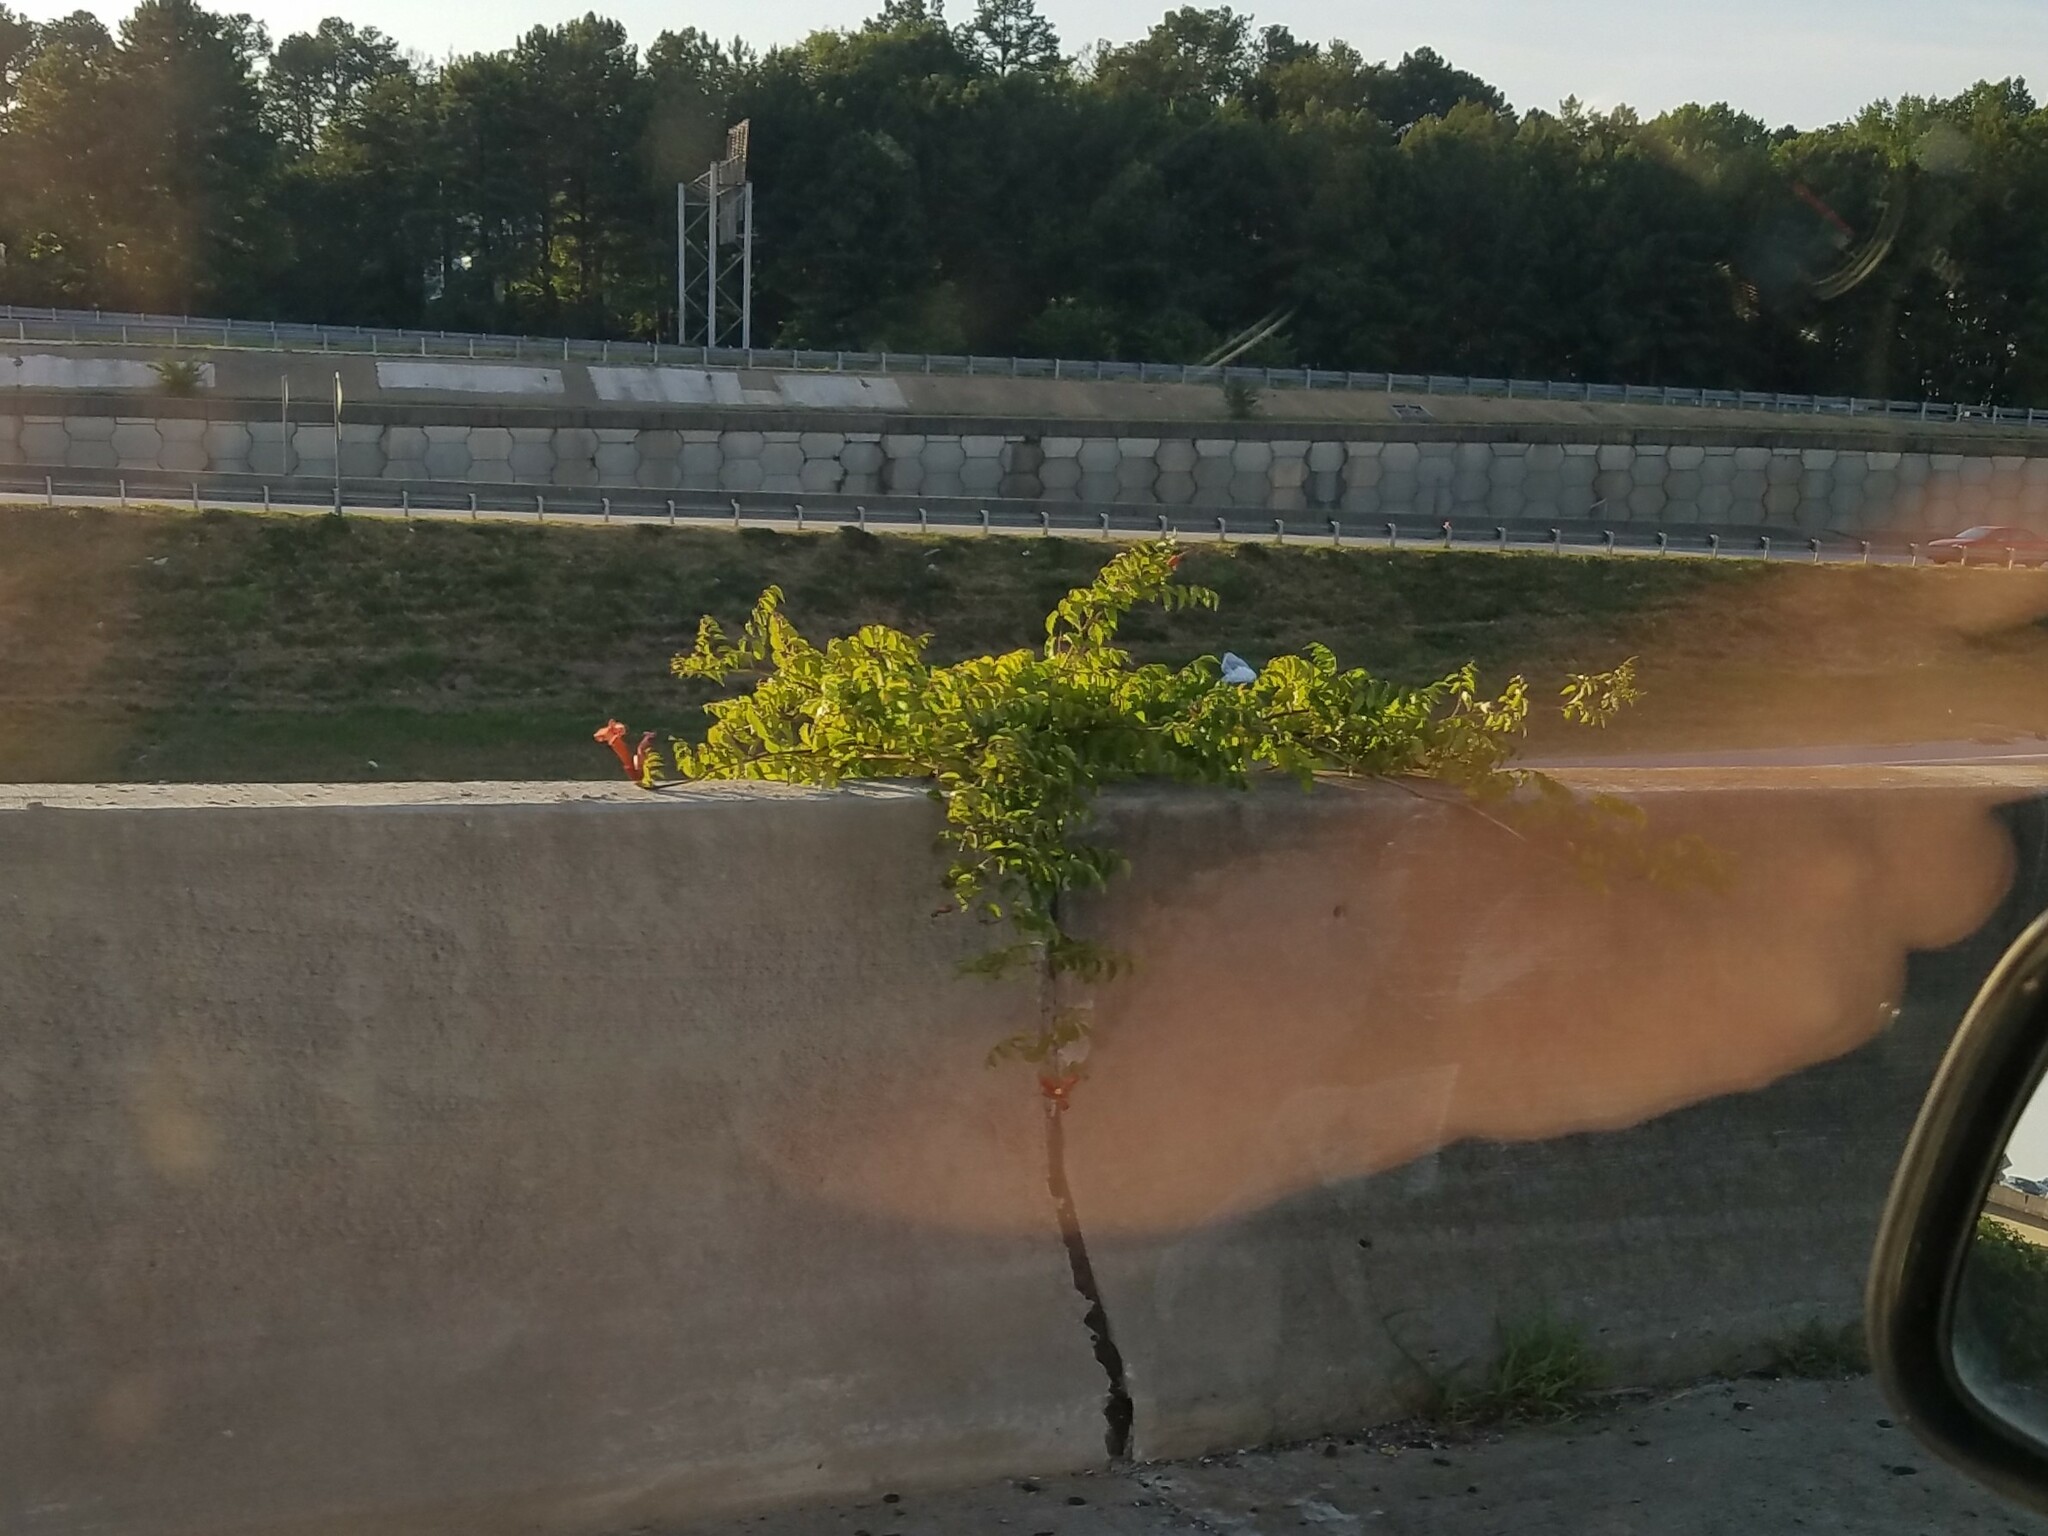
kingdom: Plantae
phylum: Tracheophyta
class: Magnoliopsida
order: Lamiales
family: Bignoniaceae
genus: Campsis
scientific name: Campsis radicans
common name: Trumpet-creeper
